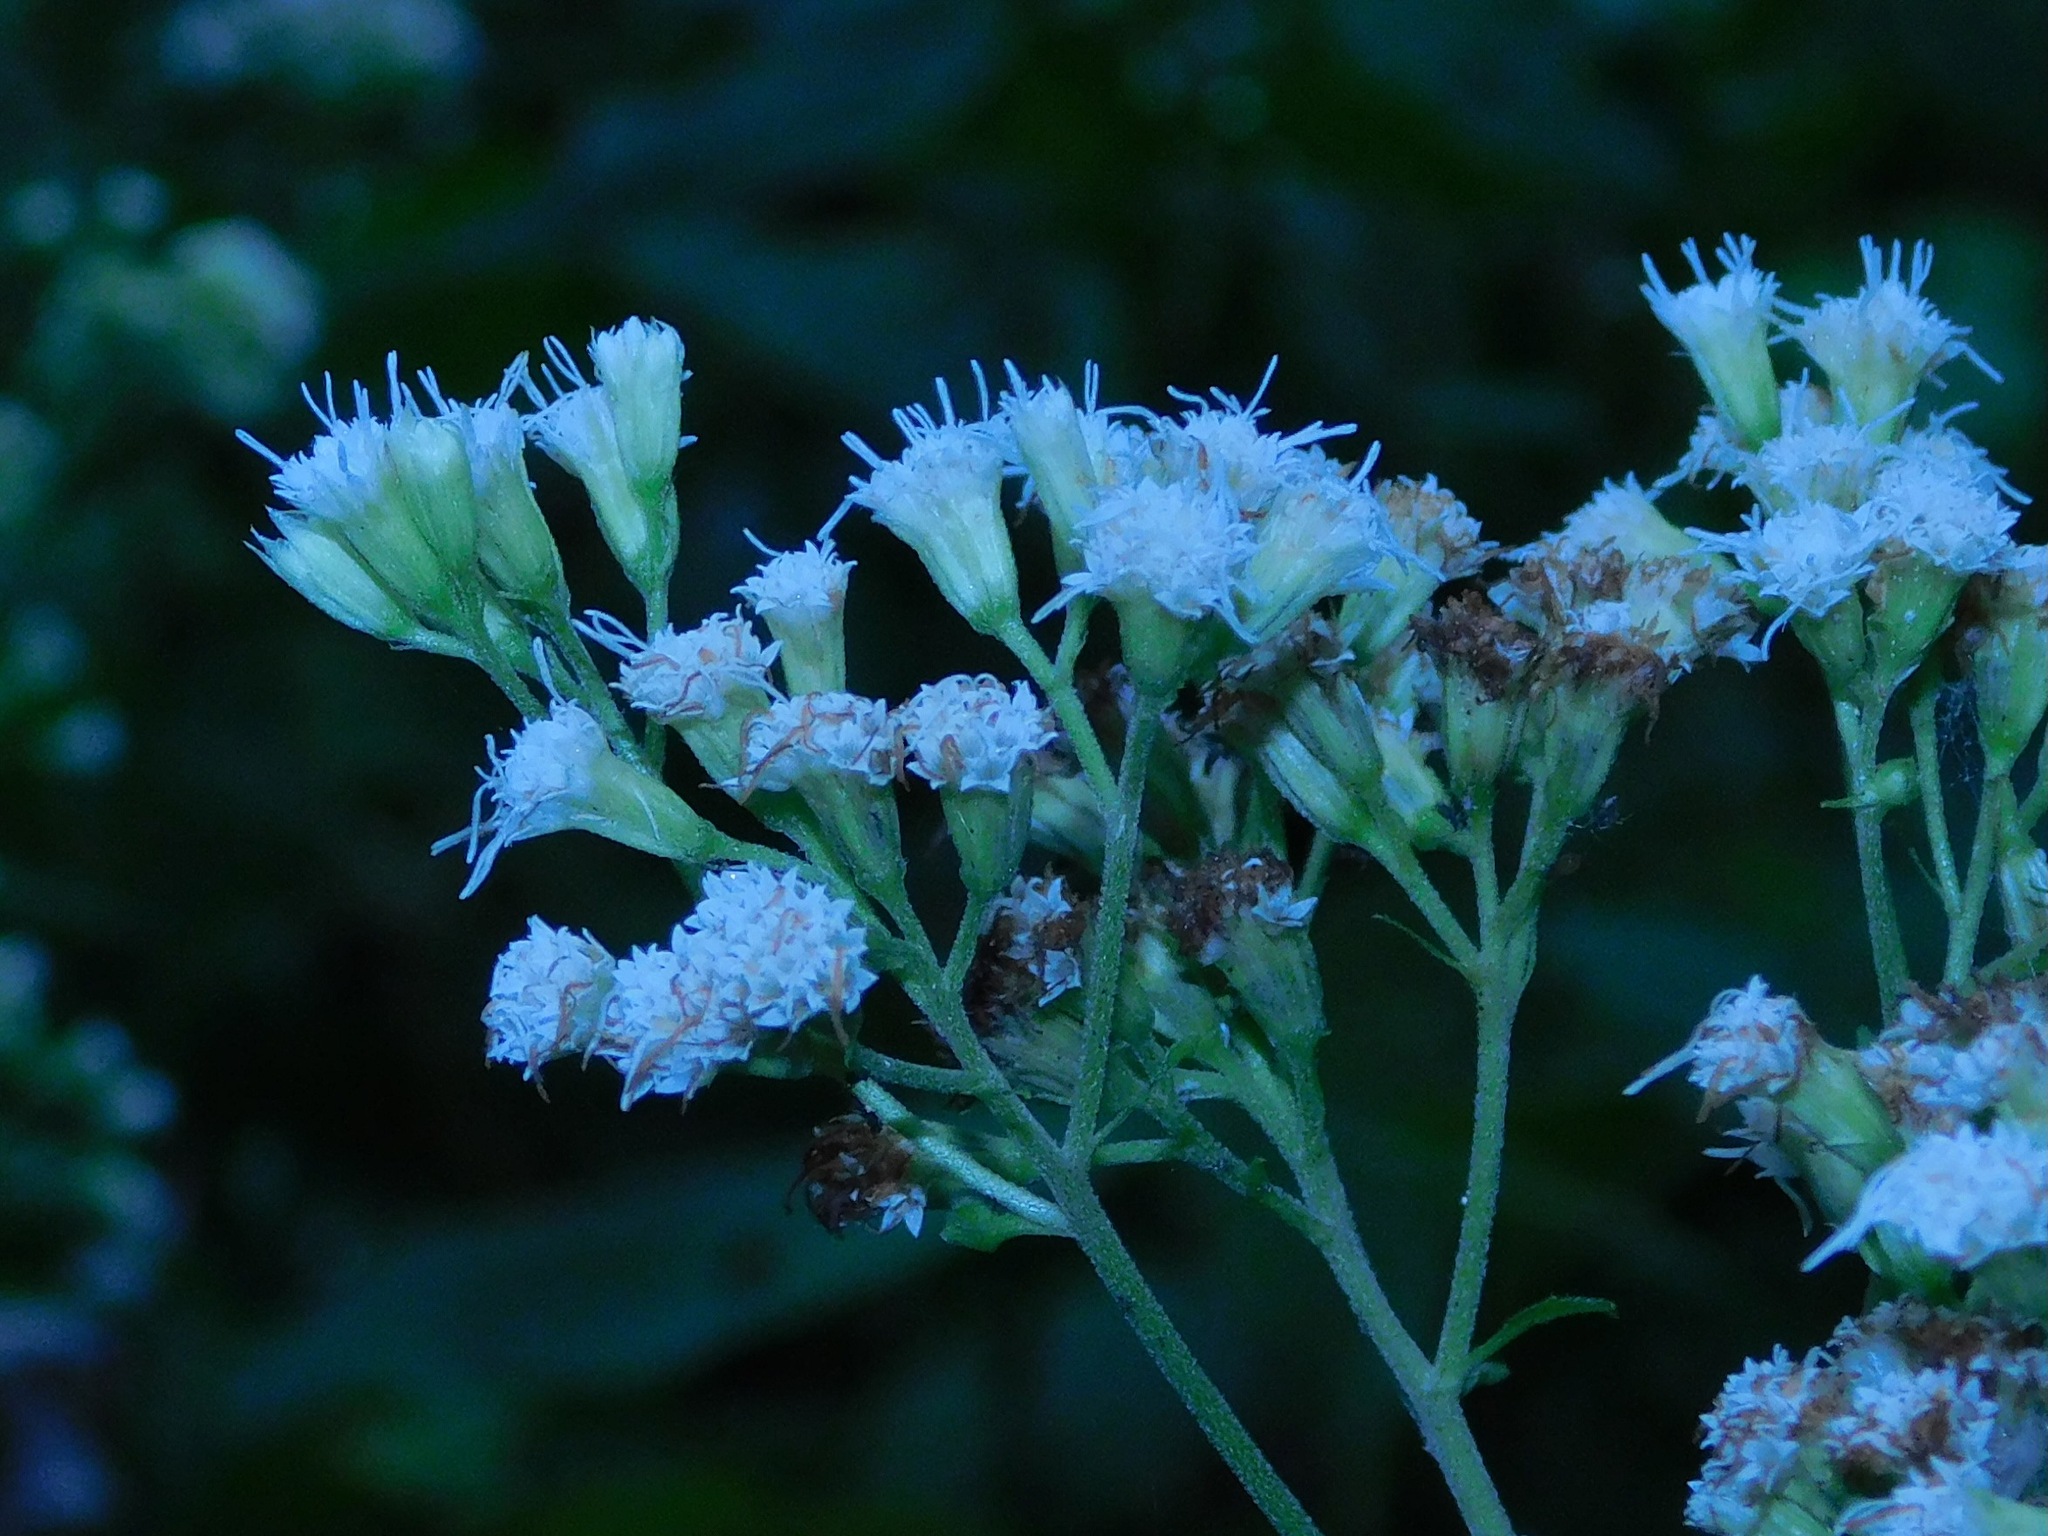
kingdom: Plantae
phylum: Tracheophyta
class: Magnoliopsida
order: Asterales
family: Asteraceae
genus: Ageratina
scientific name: Ageratina roanensis
